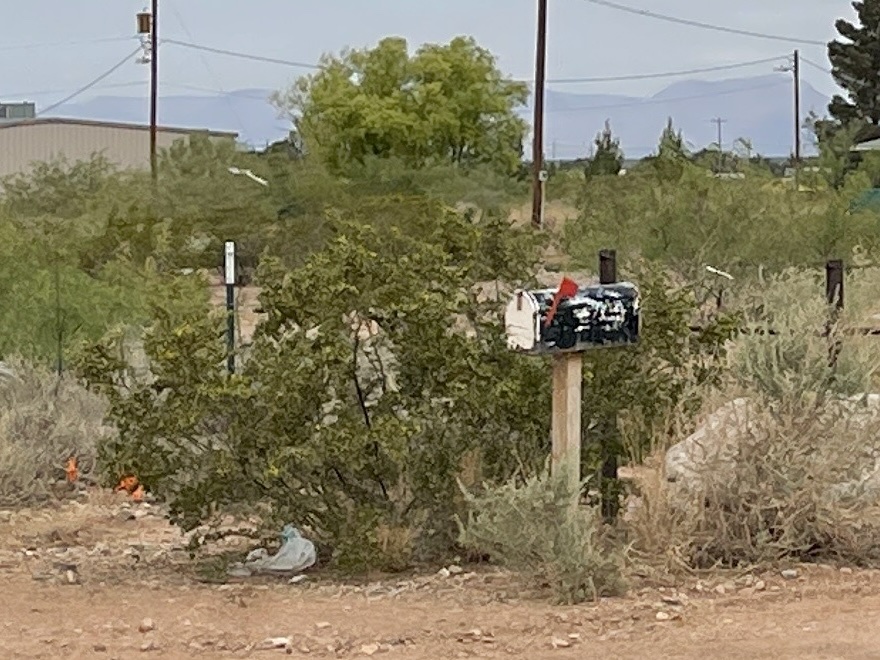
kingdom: Plantae
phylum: Tracheophyta
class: Magnoliopsida
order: Zygophyllales
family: Zygophyllaceae
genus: Larrea
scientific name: Larrea tridentata
